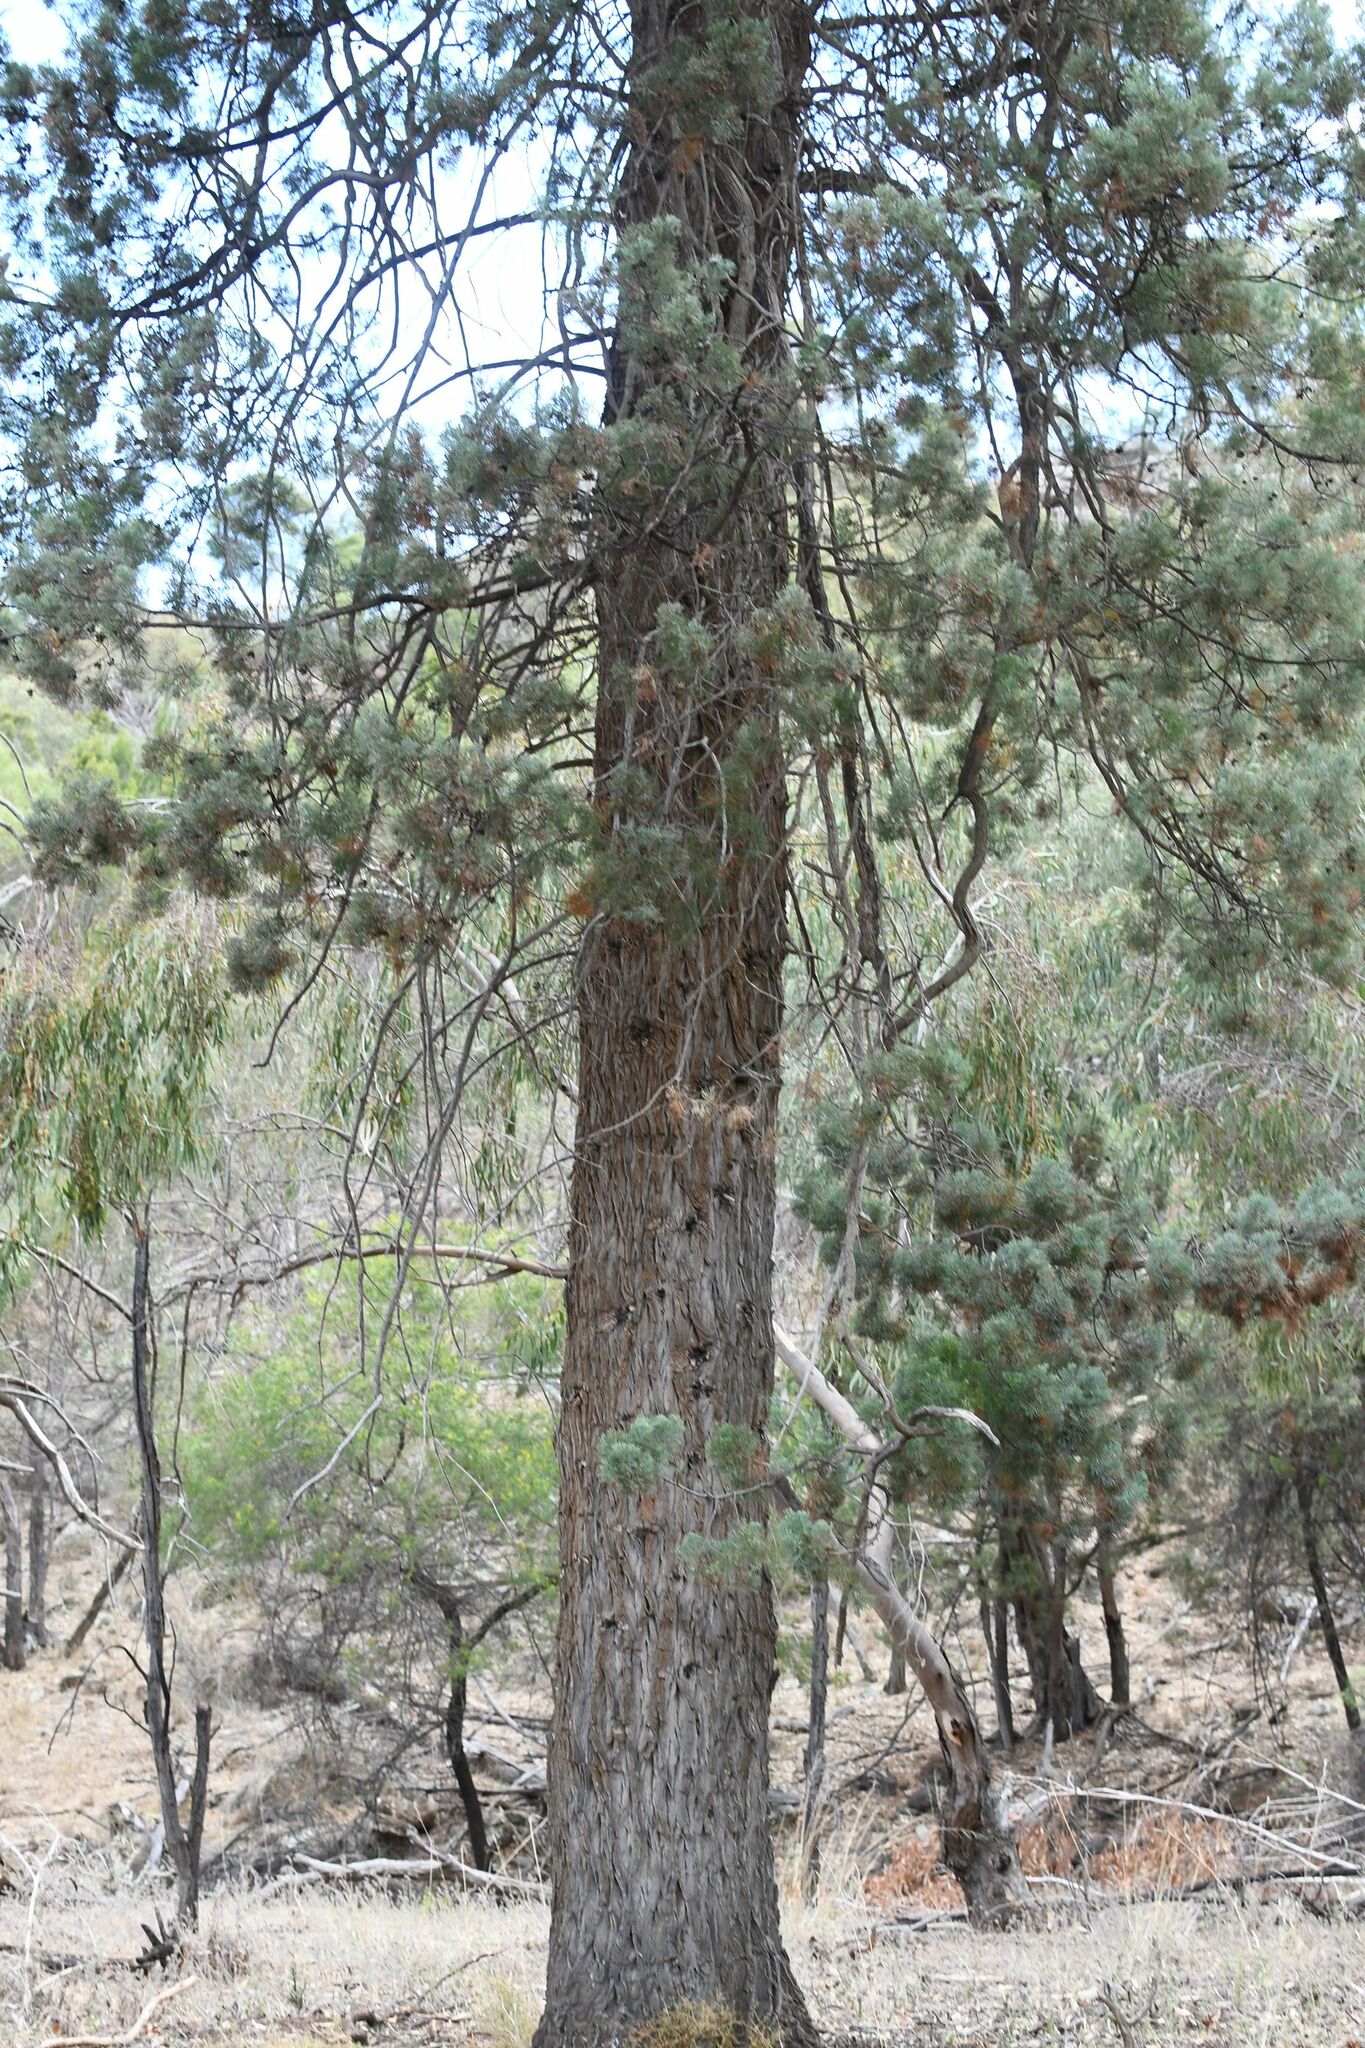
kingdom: Plantae
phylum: Tracheophyta
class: Pinopsida
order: Pinales
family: Cupressaceae
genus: Callitris
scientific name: Callitris columellaris
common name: White cypress-pine
